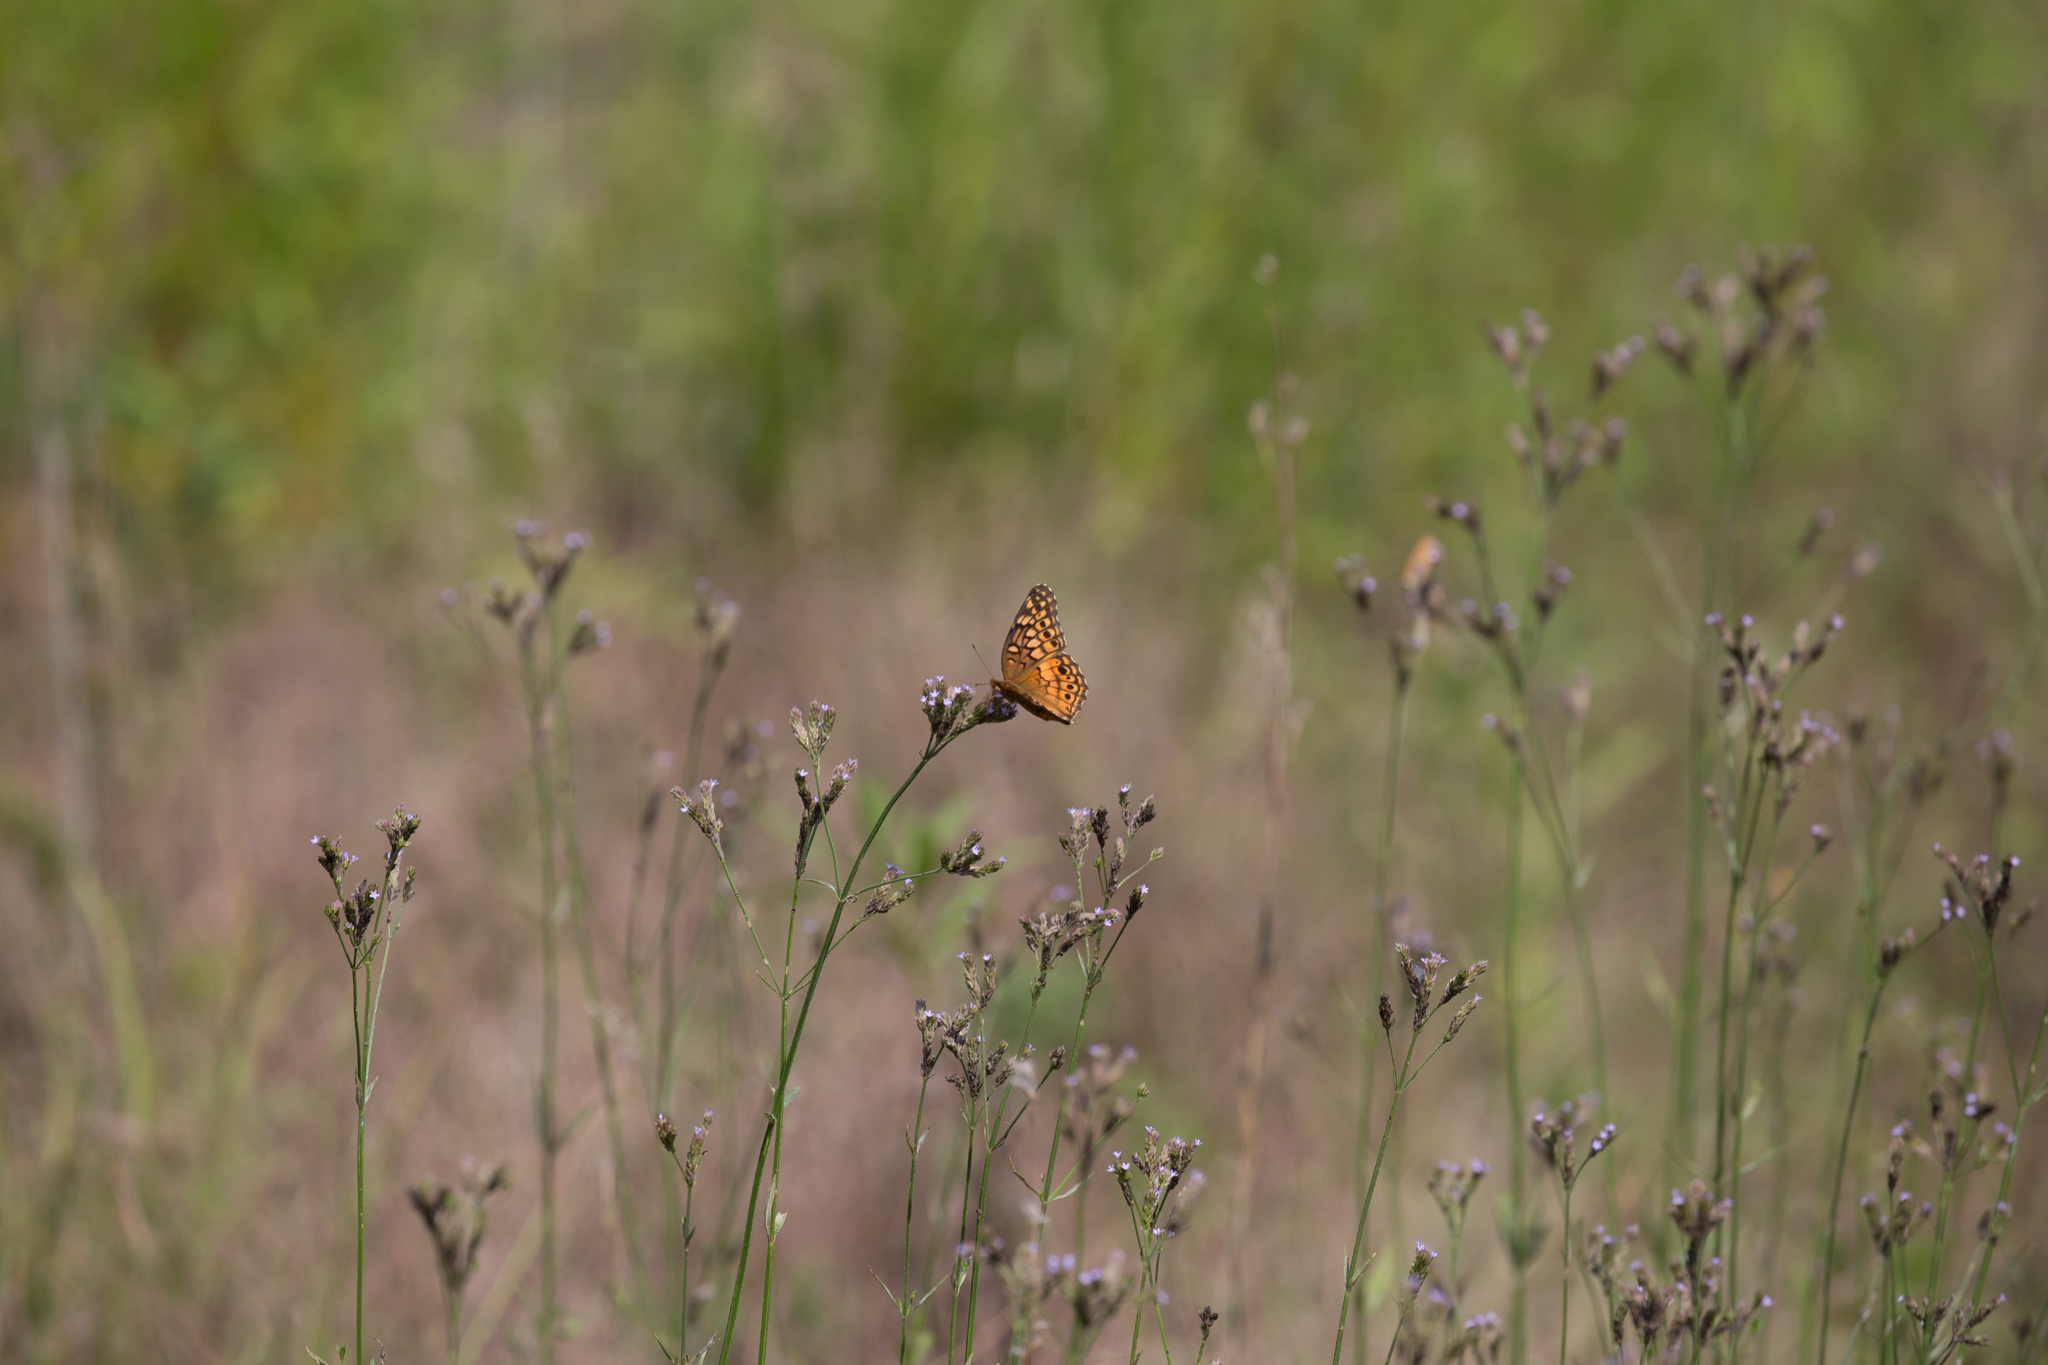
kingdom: Animalia
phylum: Arthropoda
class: Insecta
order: Lepidoptera
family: Nymphalidae
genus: Euptoieta
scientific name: Euptoieta claudia
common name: Variegated fritillary
